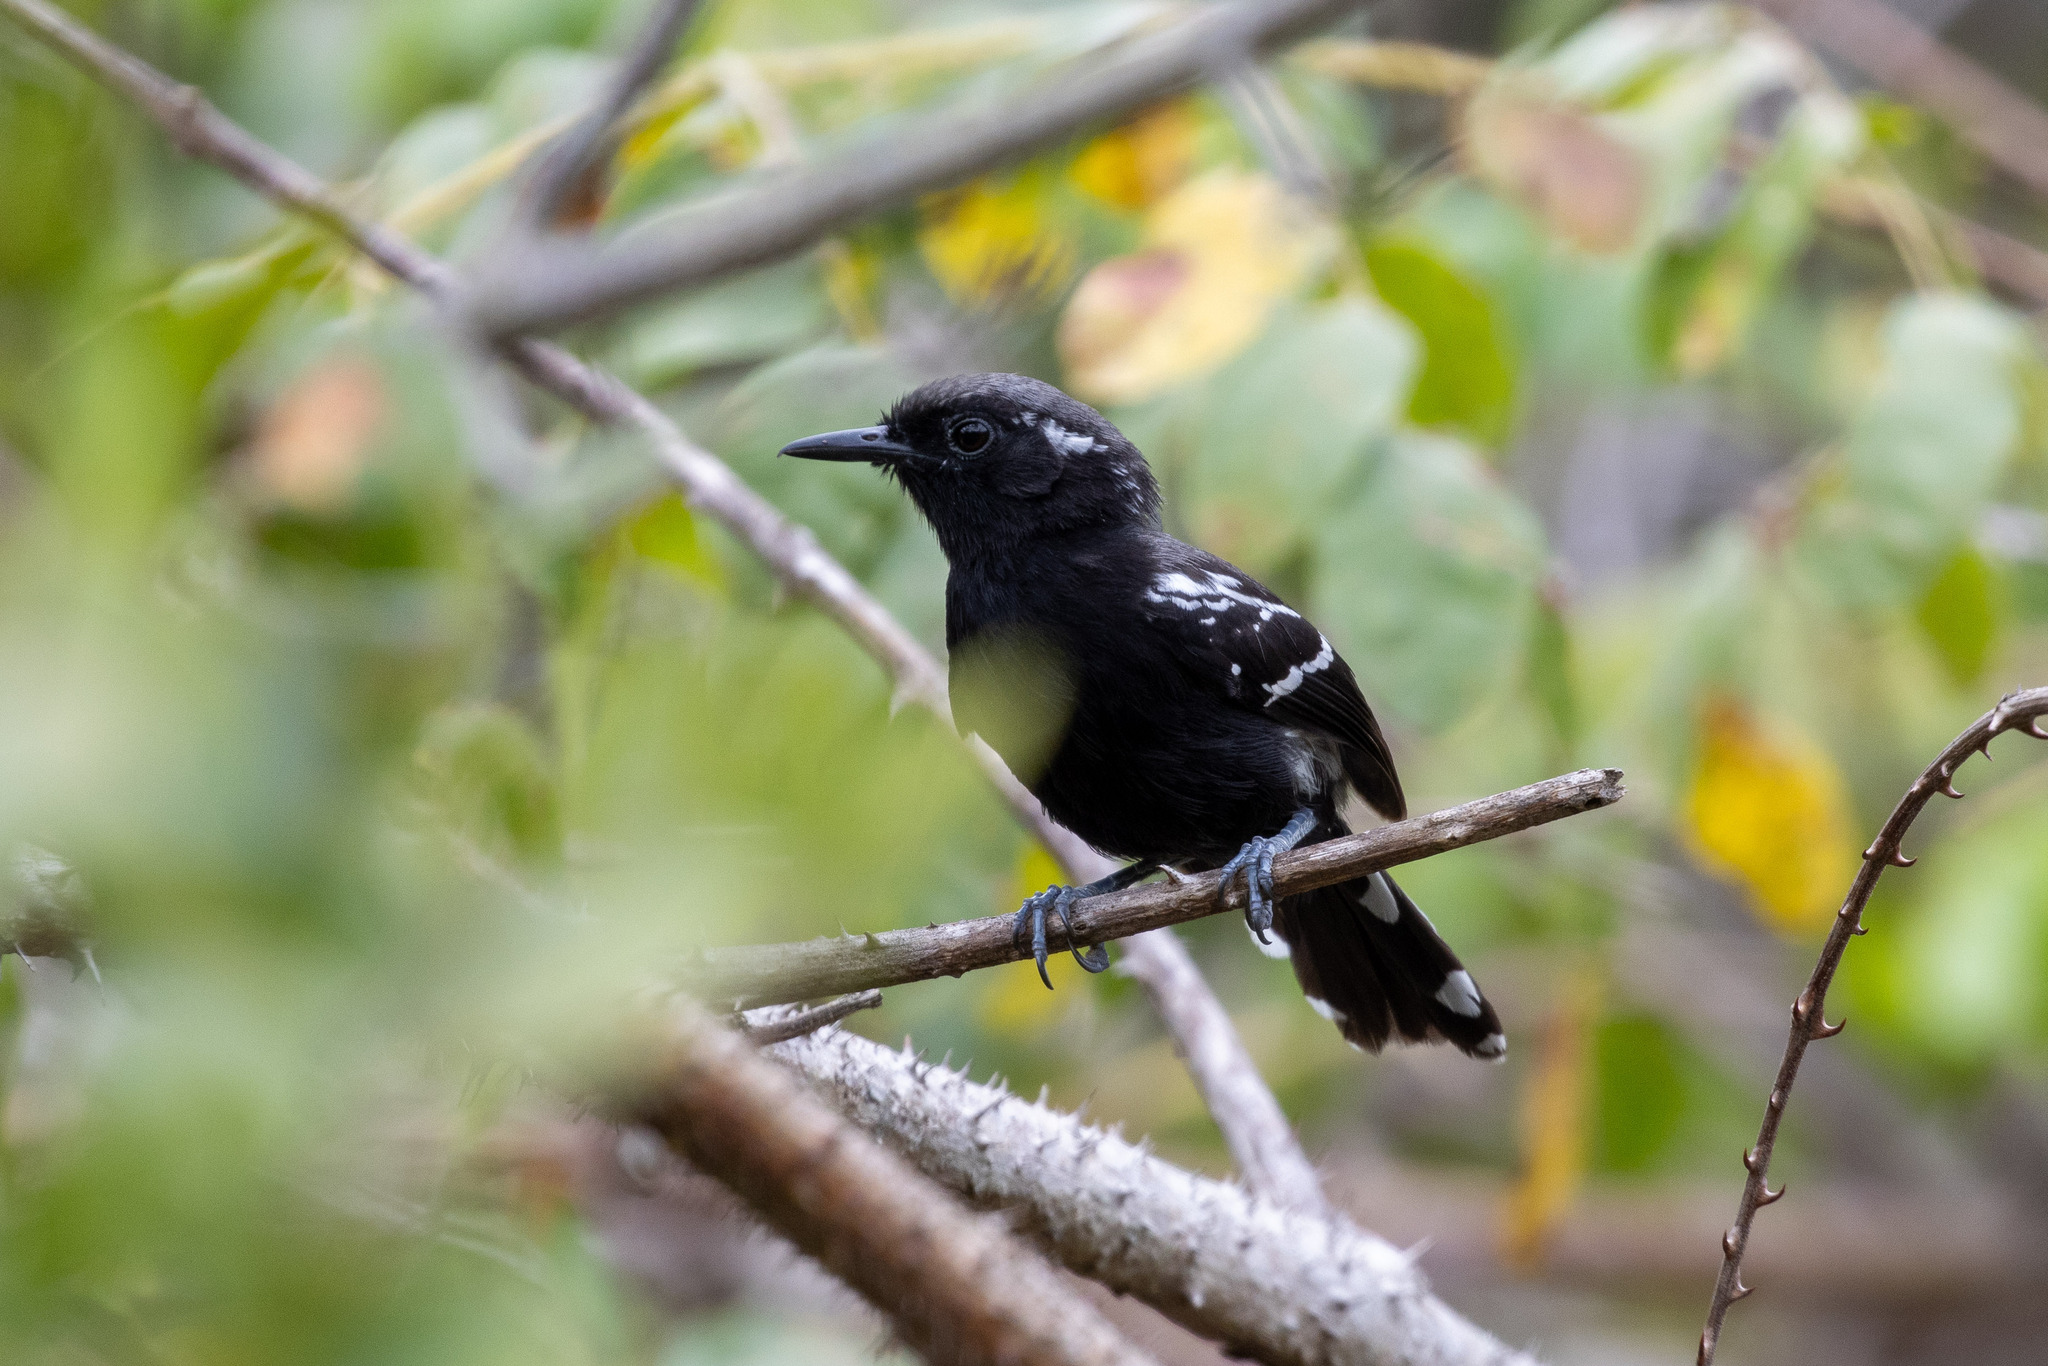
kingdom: Animalia
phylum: Chordata
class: Aves
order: Passeriformes
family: Thamnophilidae
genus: Formicivora
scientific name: Formicivora serrana
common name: Serra antwren
